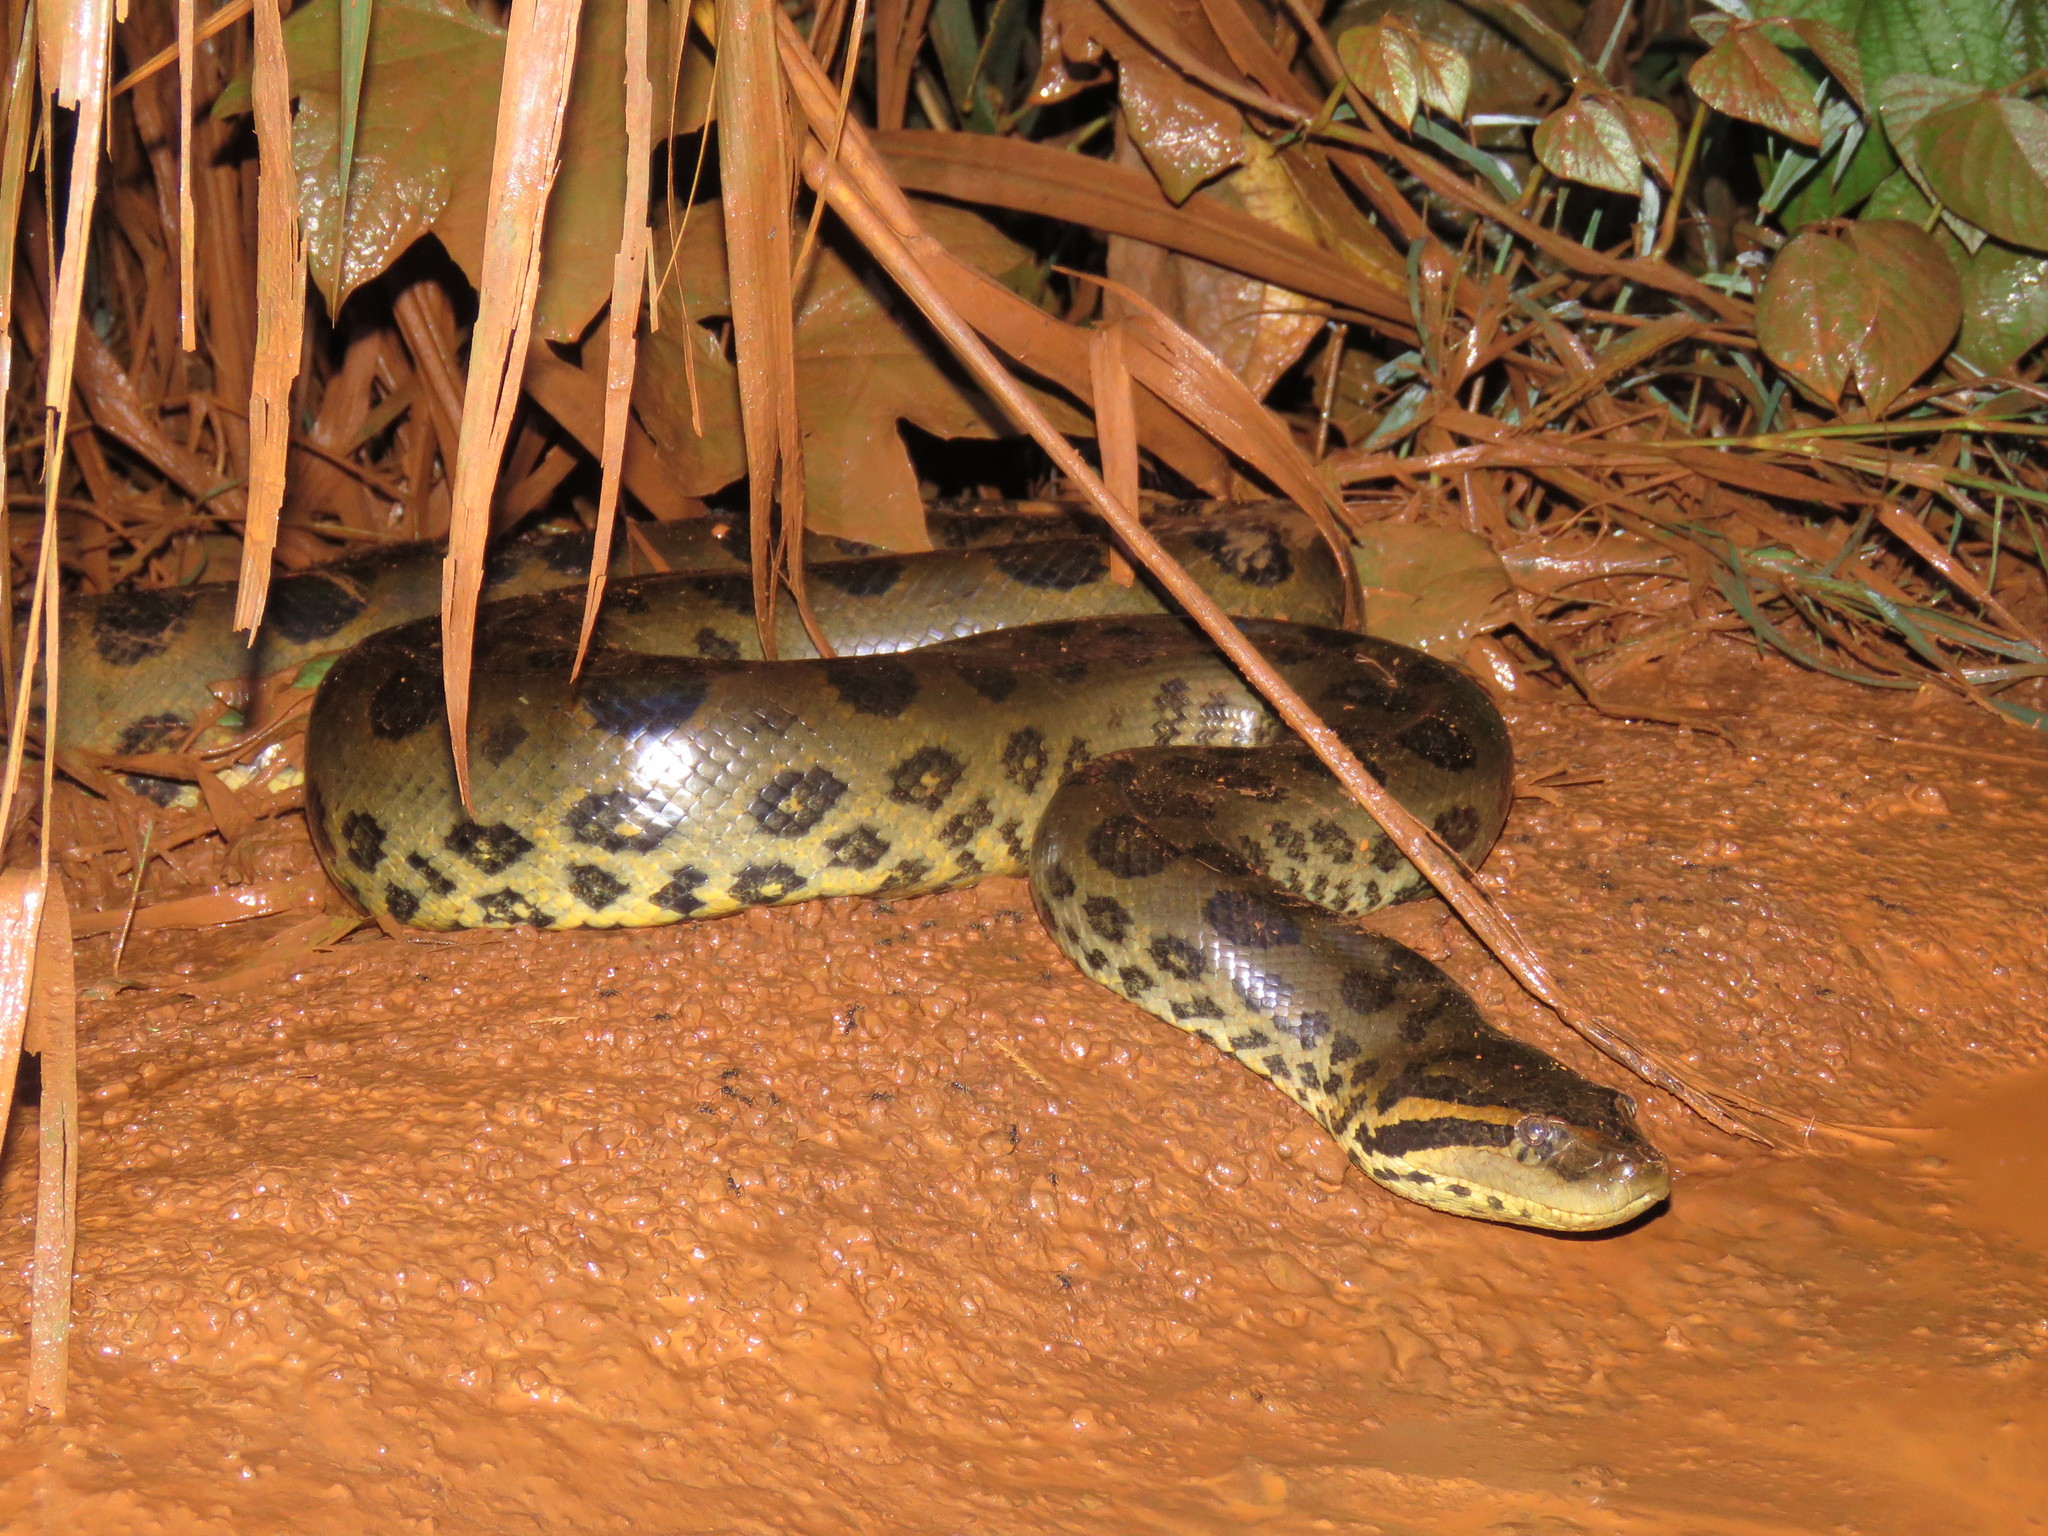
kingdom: Animalia
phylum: Chordata
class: Squamata
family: Boidae
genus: Eunectes
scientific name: Eunectes murinus
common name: Anaconda
